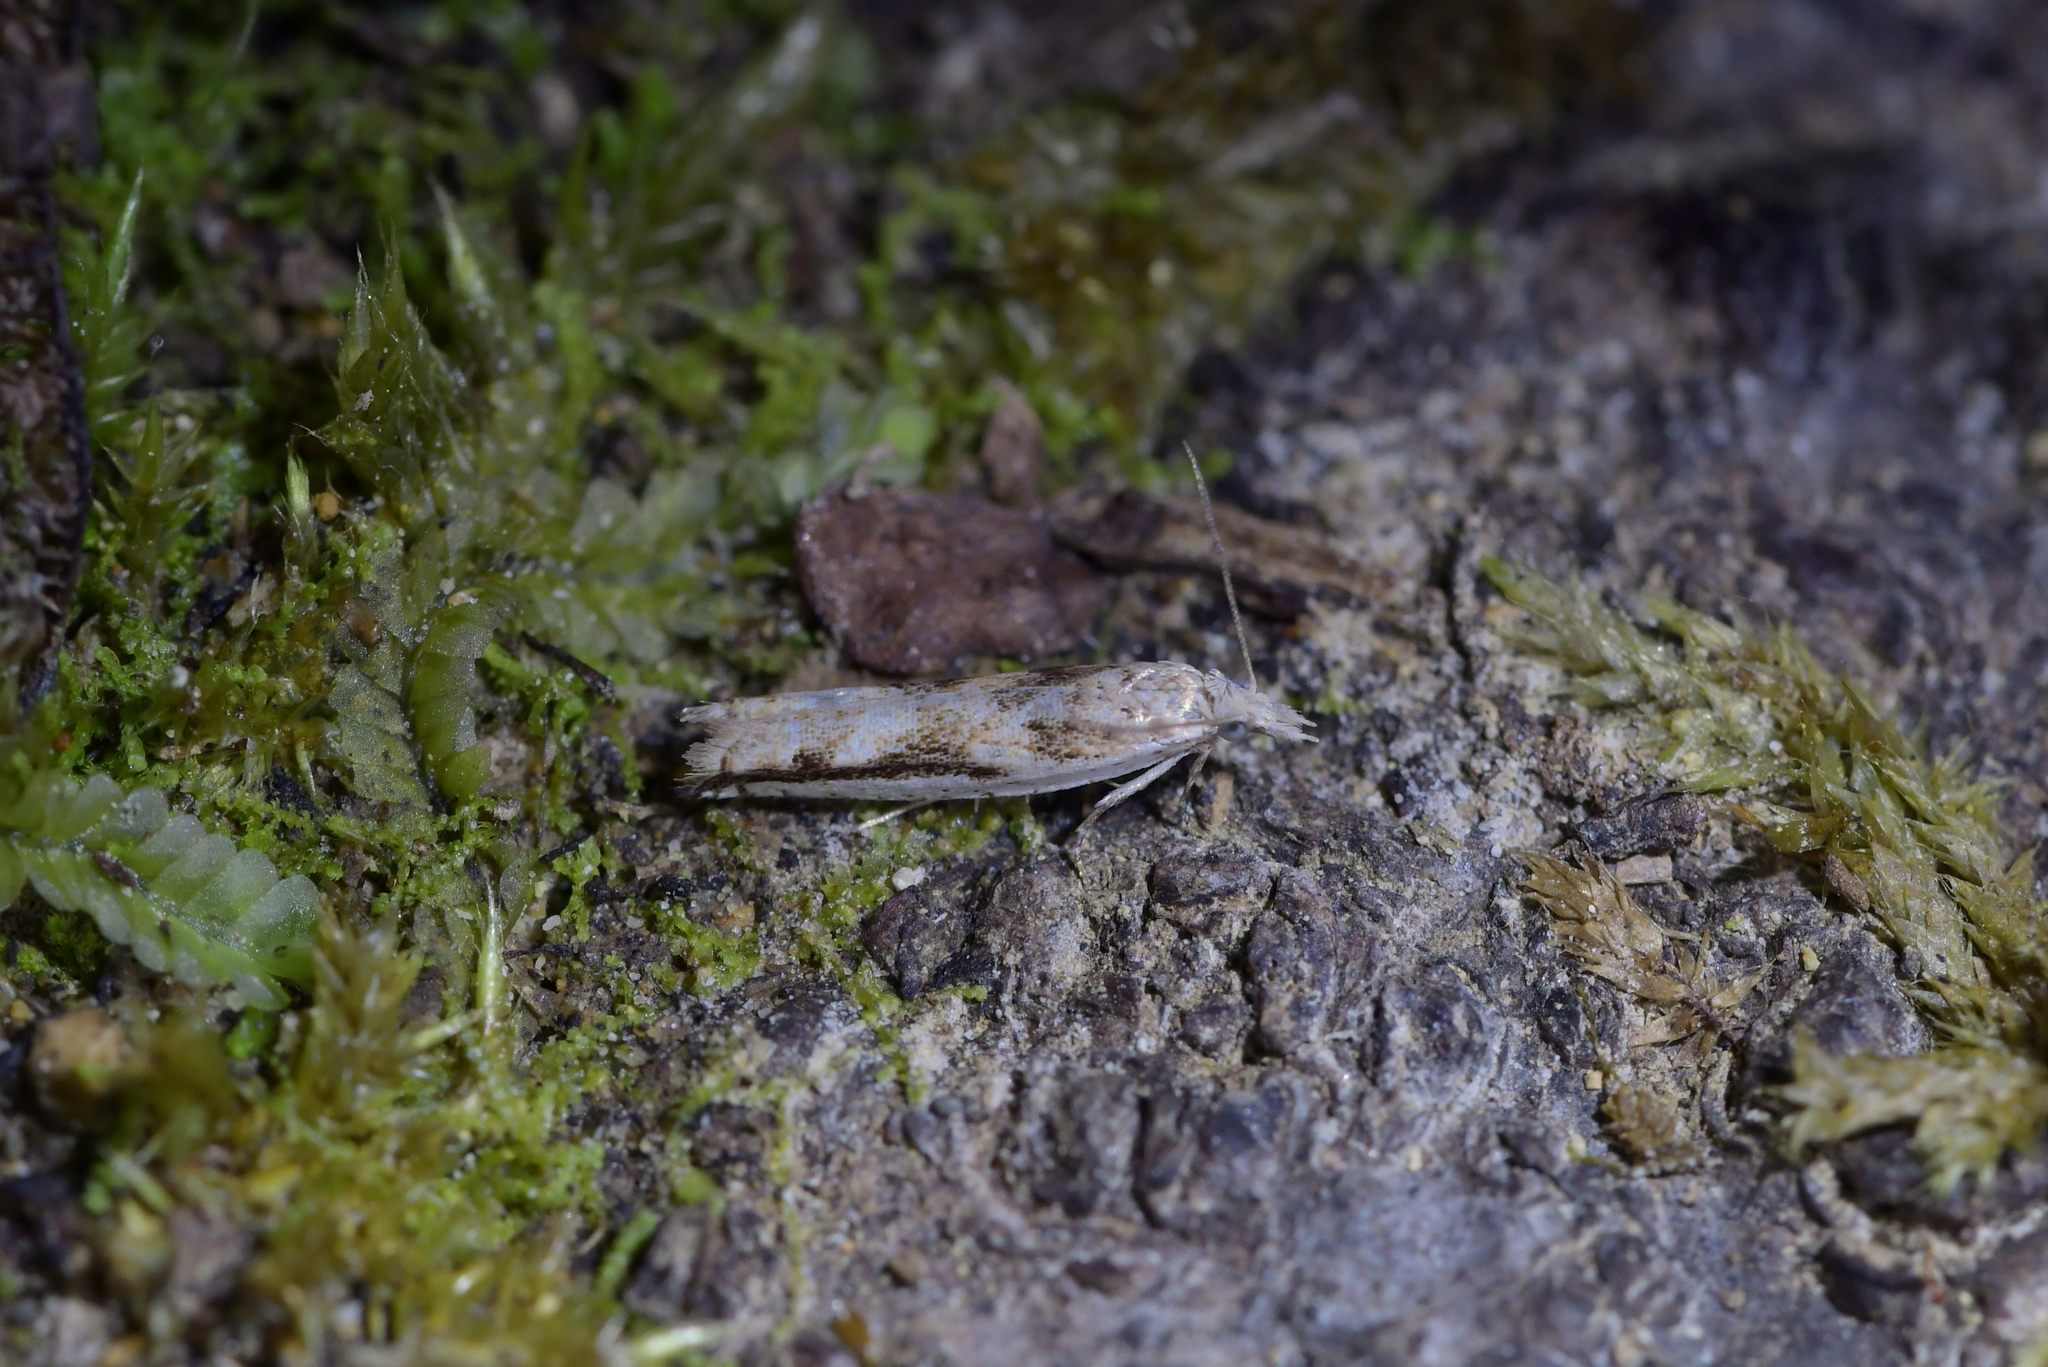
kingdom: Animalia
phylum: Arthropoda
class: Insecta
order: Lepidoptera
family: Tortricidae
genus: Holocola
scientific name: Holocola
